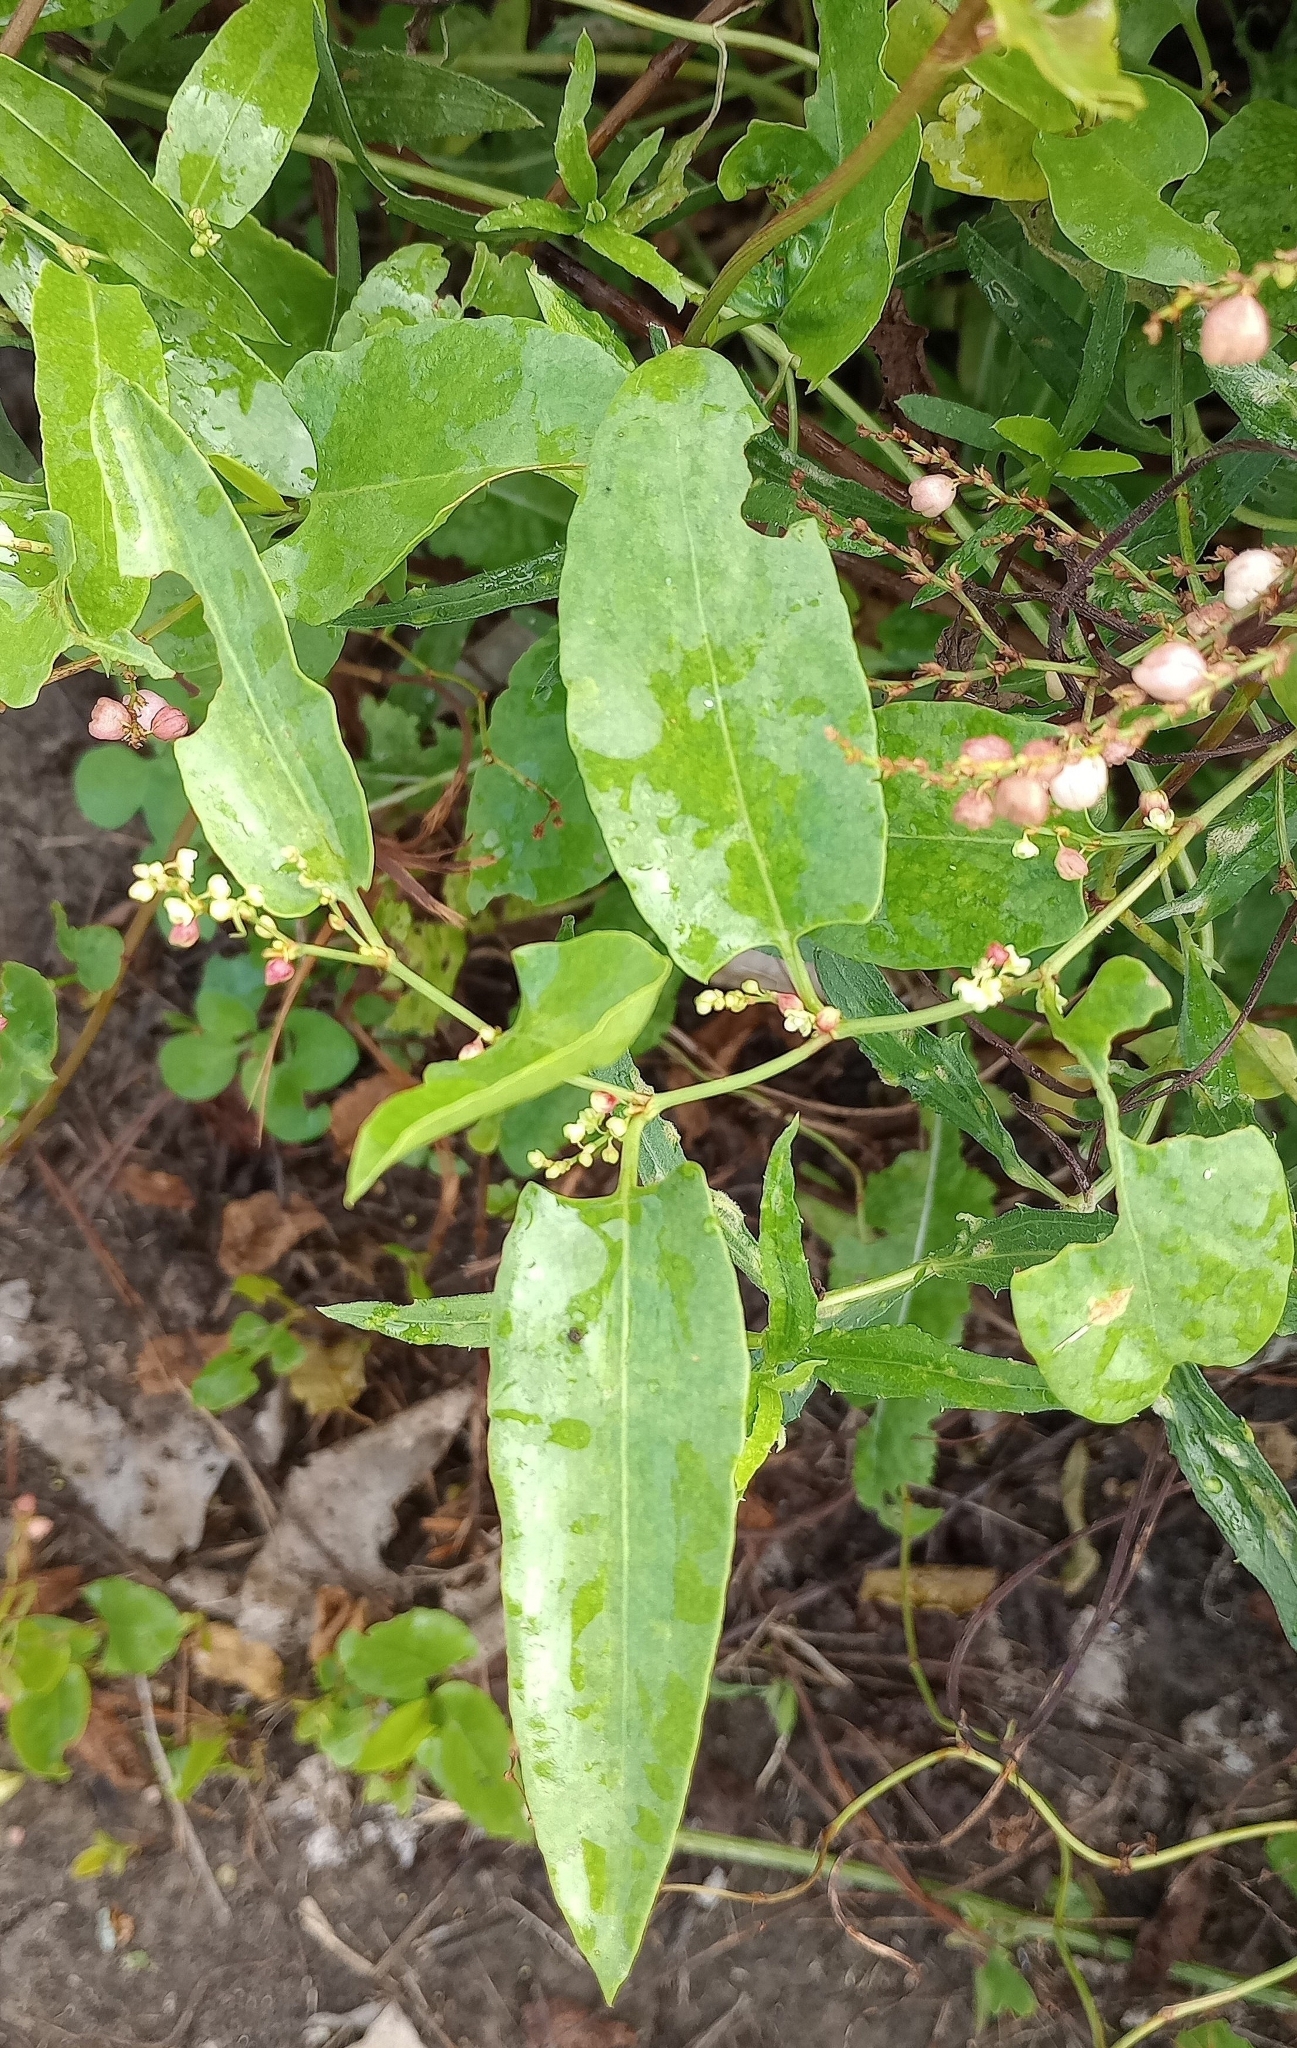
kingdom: Plantae
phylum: Tracheophyta
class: Magnoliopsida
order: Caryophyllales
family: Polygonaceae
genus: Muehlenbeckia
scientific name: Muehlenbeckia sagittifolia
